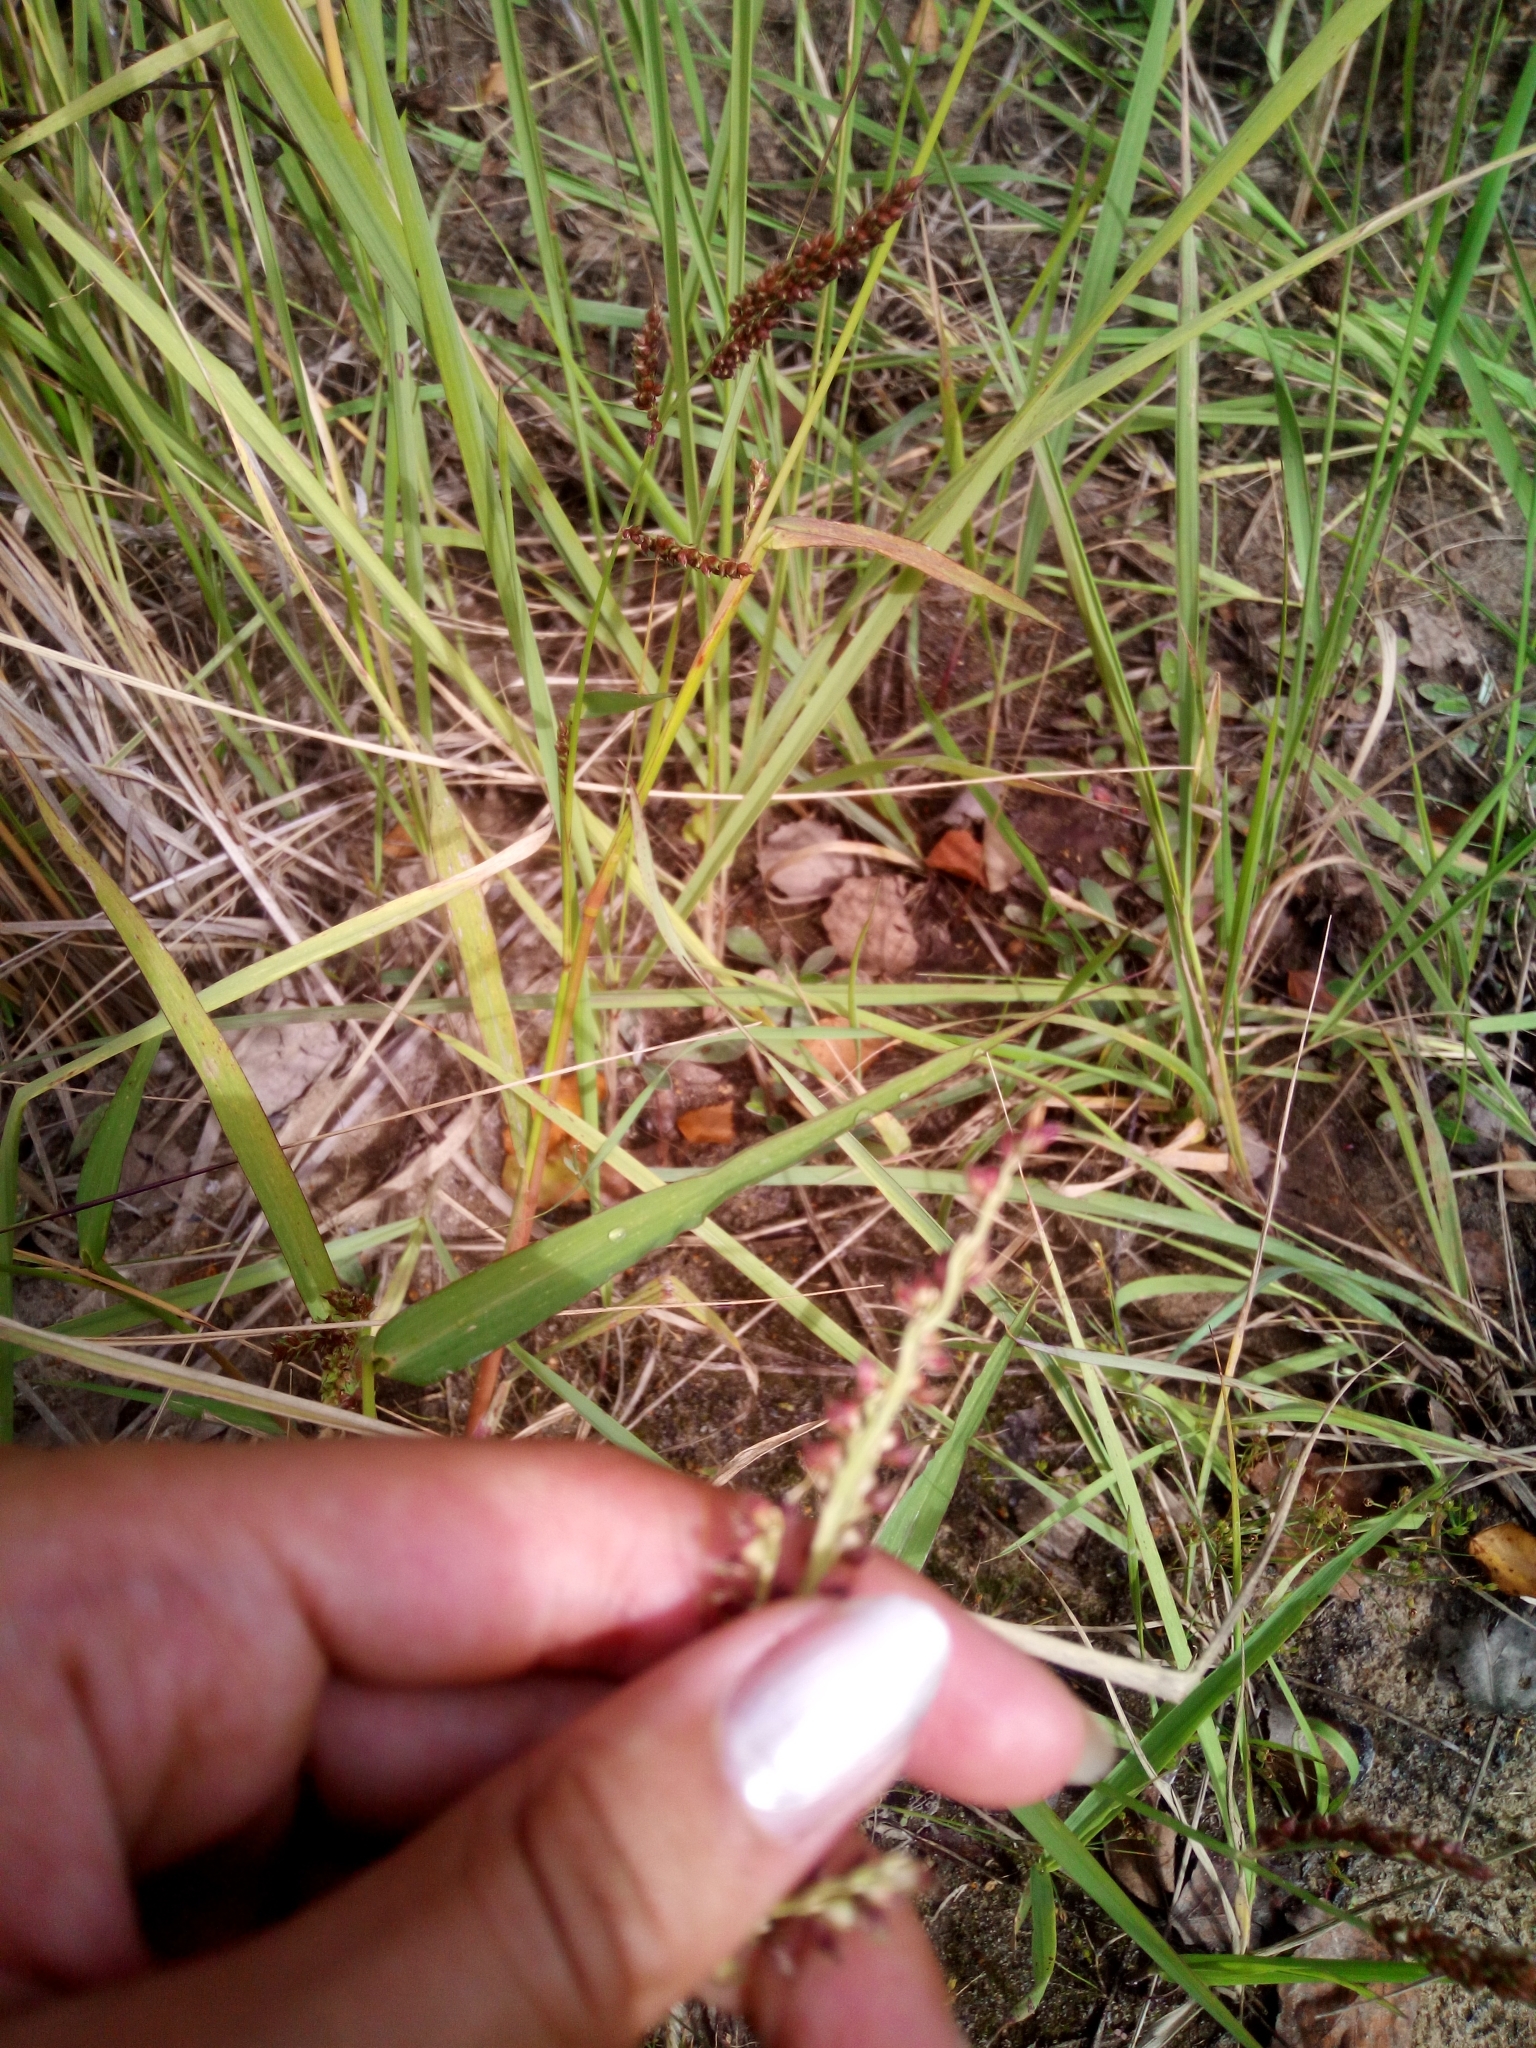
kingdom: Plantae
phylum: Tracheophyta
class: Liliopsida
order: Poales
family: Poaceae
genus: Echinochloa
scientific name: Echinochloa crus-galli
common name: Cockspur
